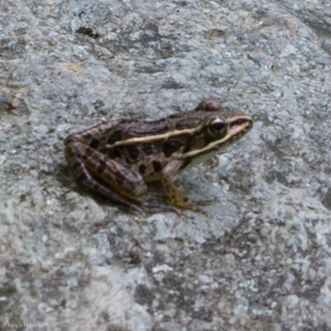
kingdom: Animalia
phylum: Chordata
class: Amphibia
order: Anura
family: Ranidae
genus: Lithobates
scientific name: Lithobates palustris
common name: Pickerel frog
